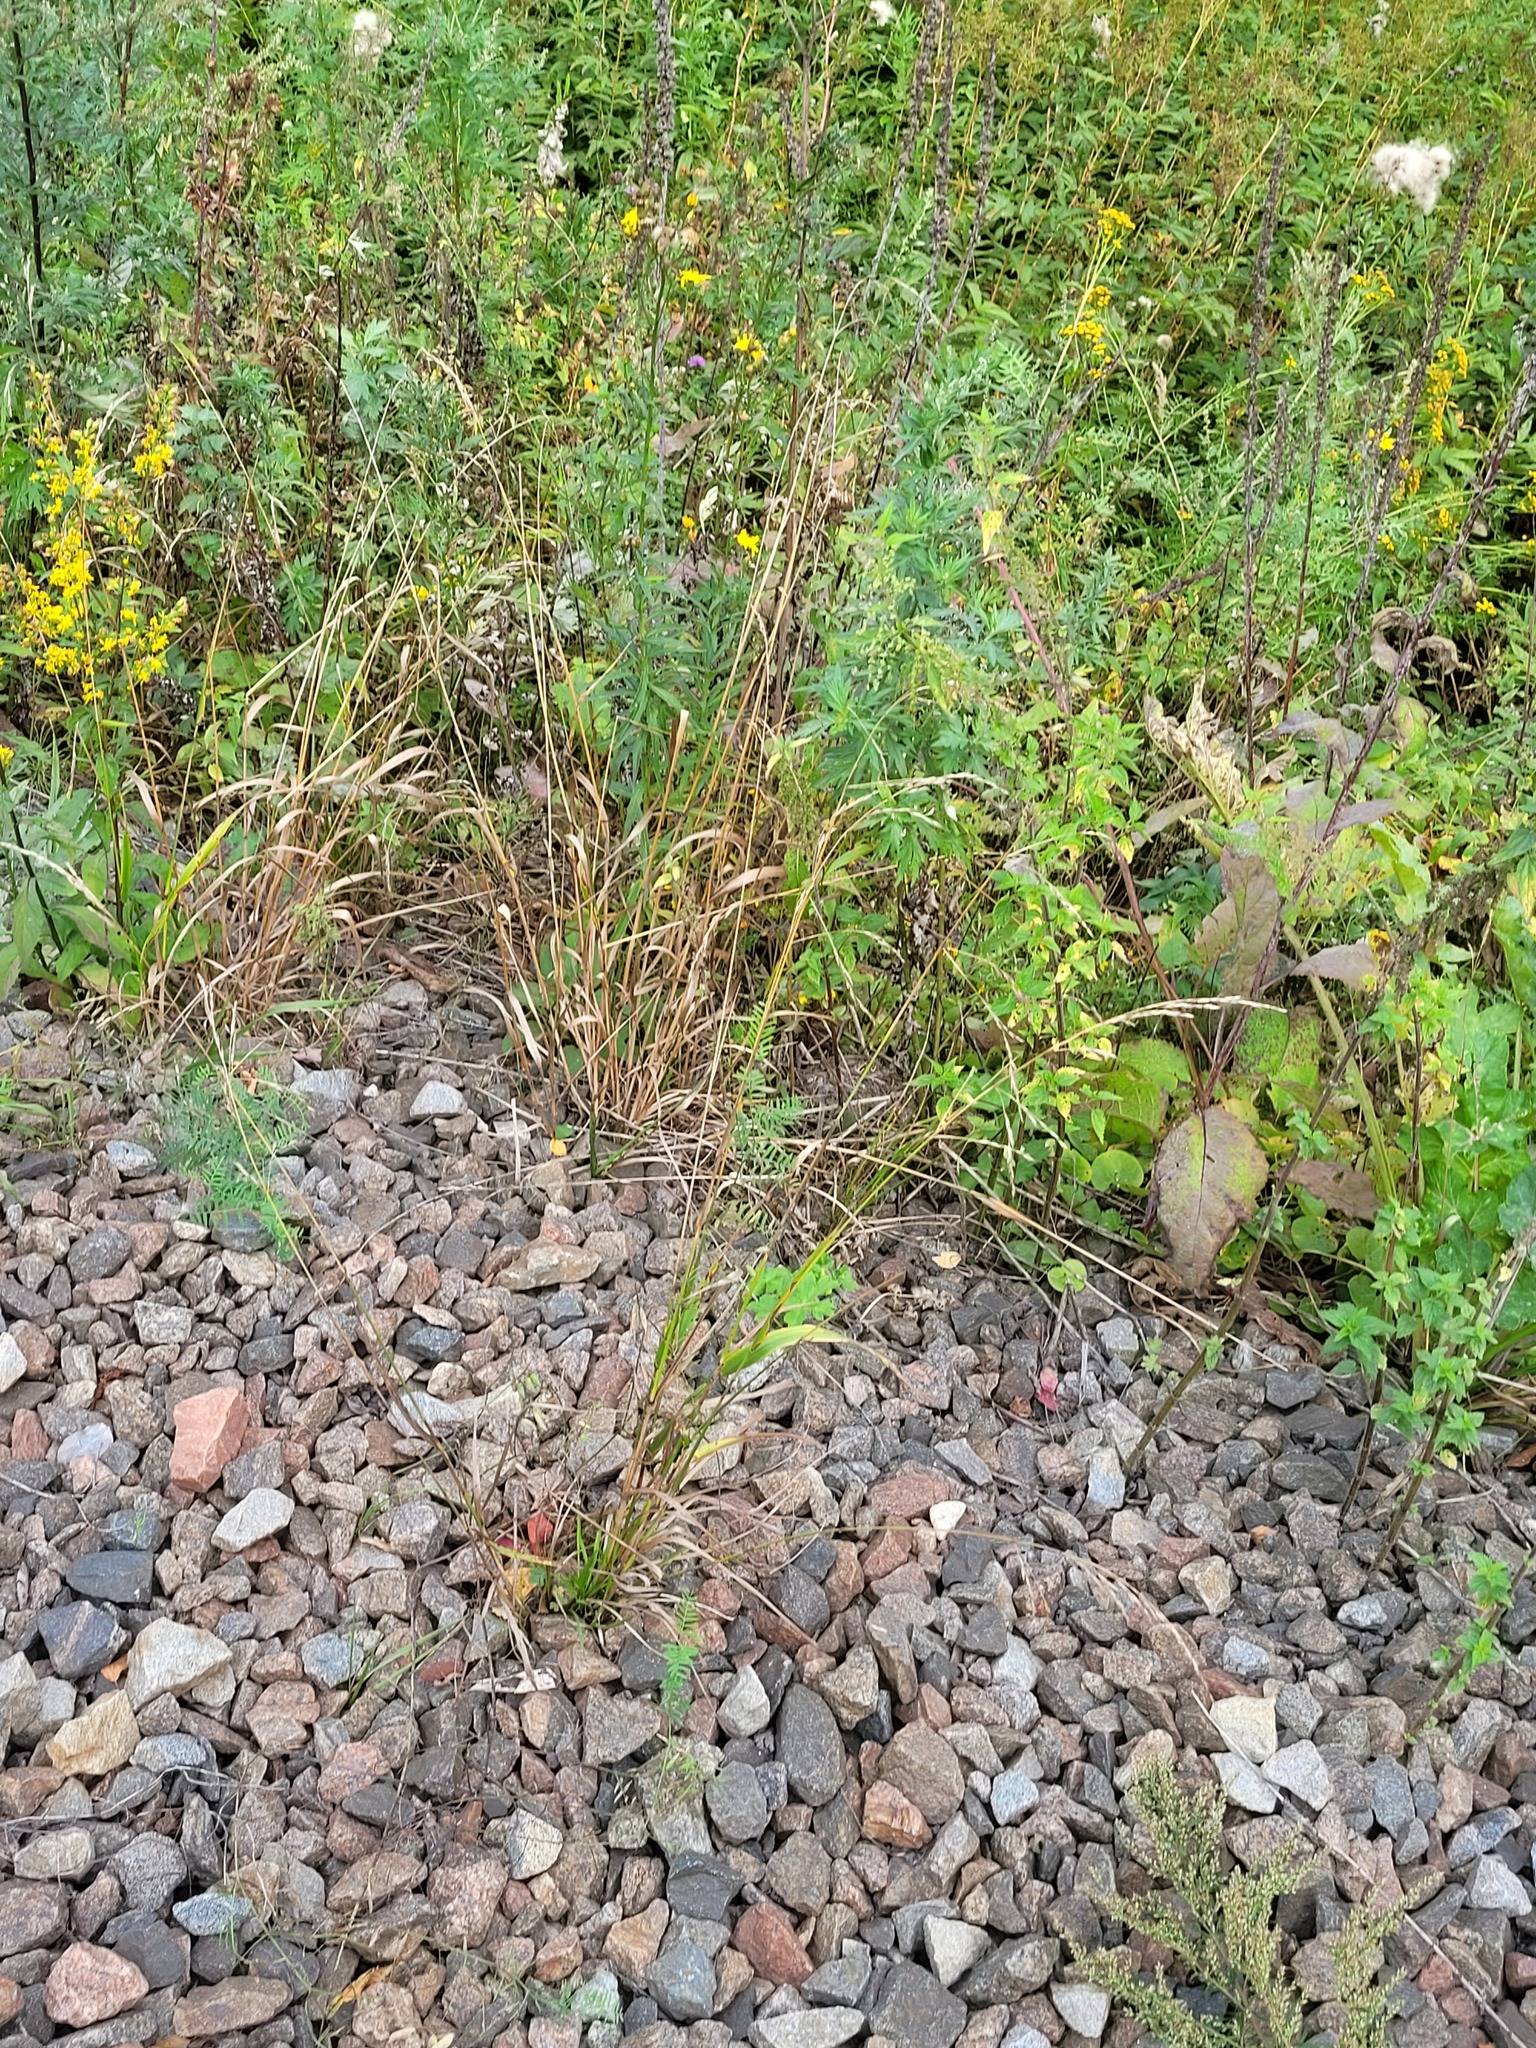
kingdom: Plantae
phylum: Tracheophyta
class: Liliopsida
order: Poales
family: Poaceae
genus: Lolium
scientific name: Lolium arundinaceum
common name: Reed fescue
